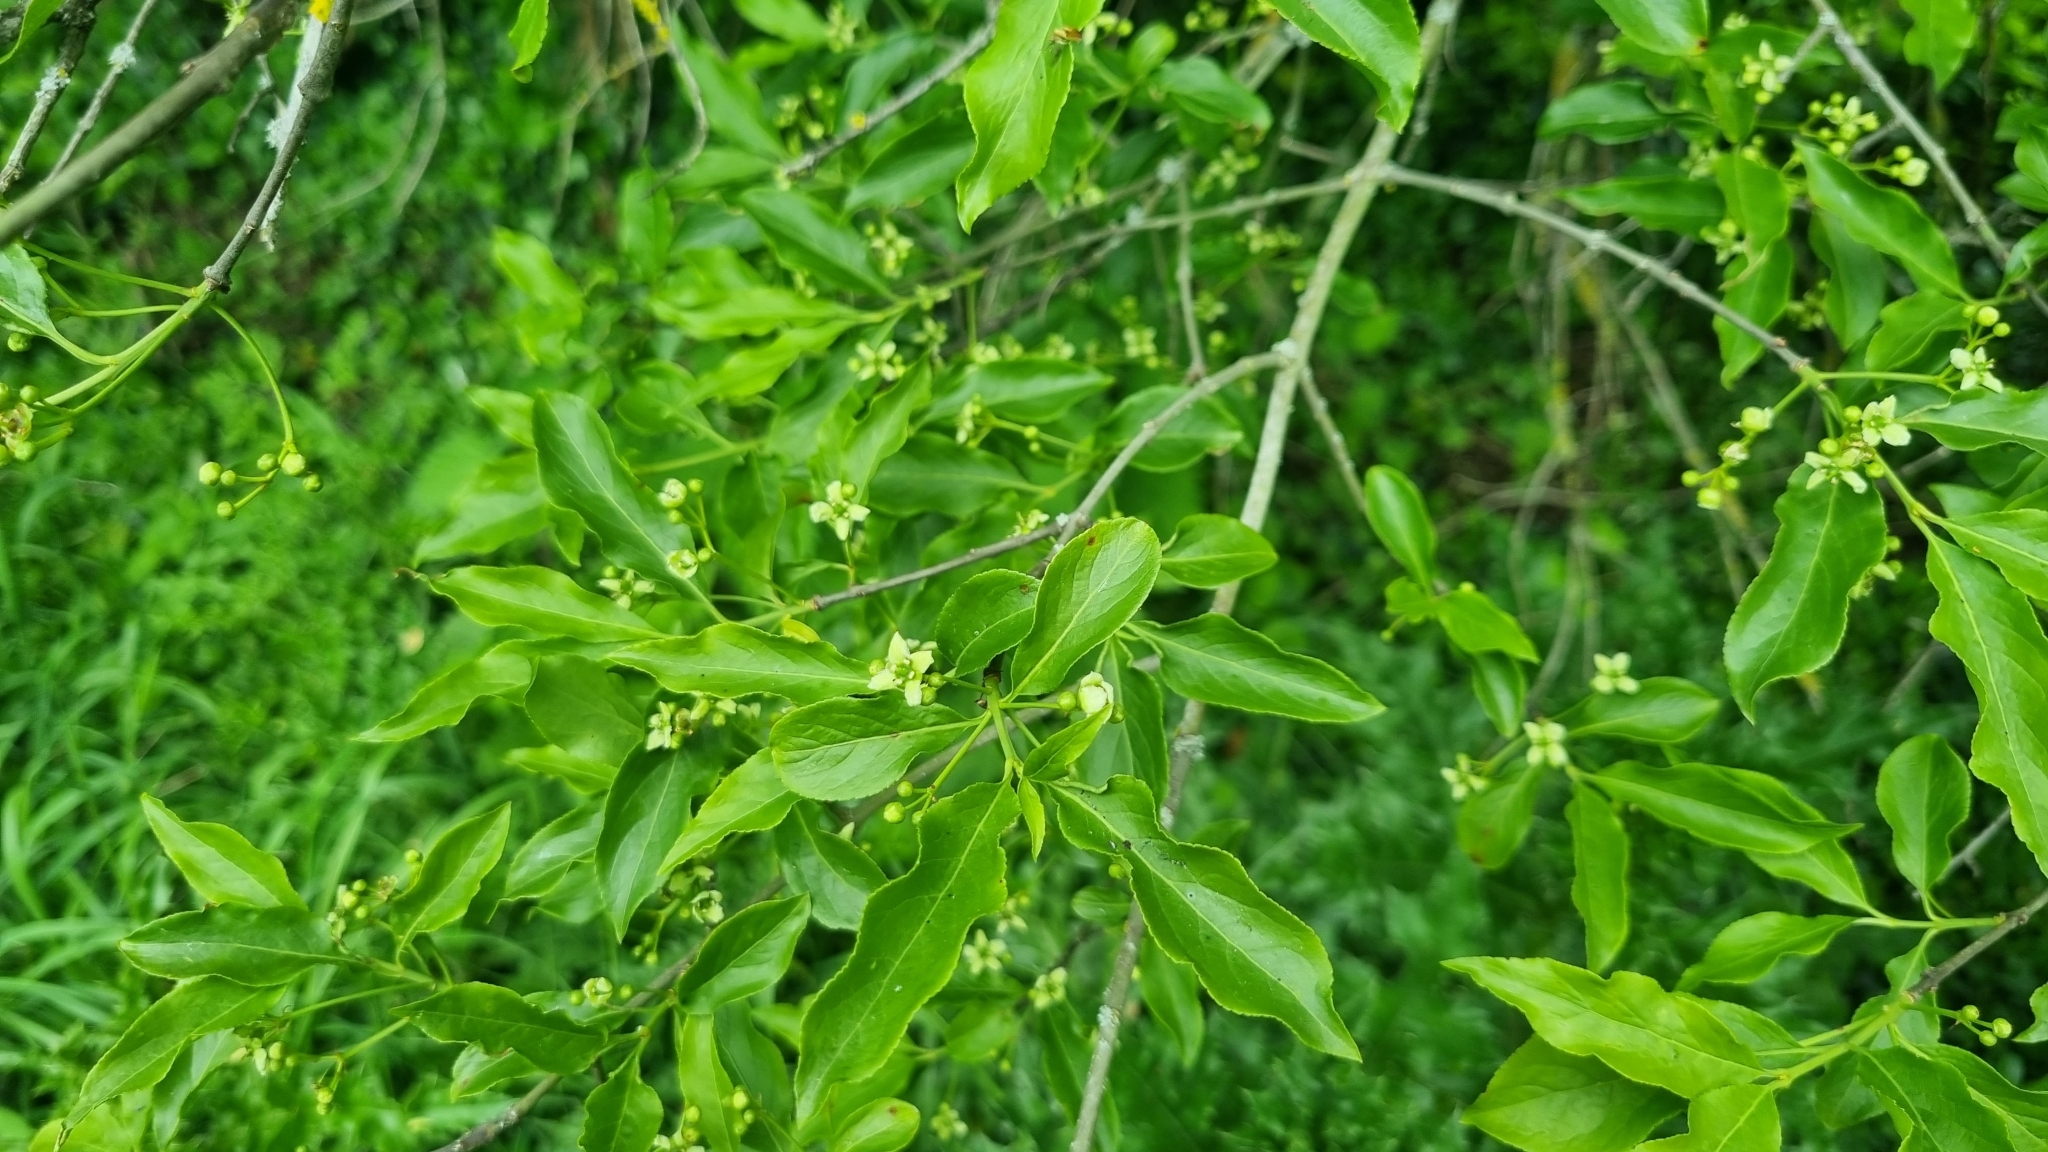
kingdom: Plantae
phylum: Tracheophyta
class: Magnoliopsida
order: Celastrales
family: Celastraceae
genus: Euonymus
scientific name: Euonymus europaeus
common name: Spindle
